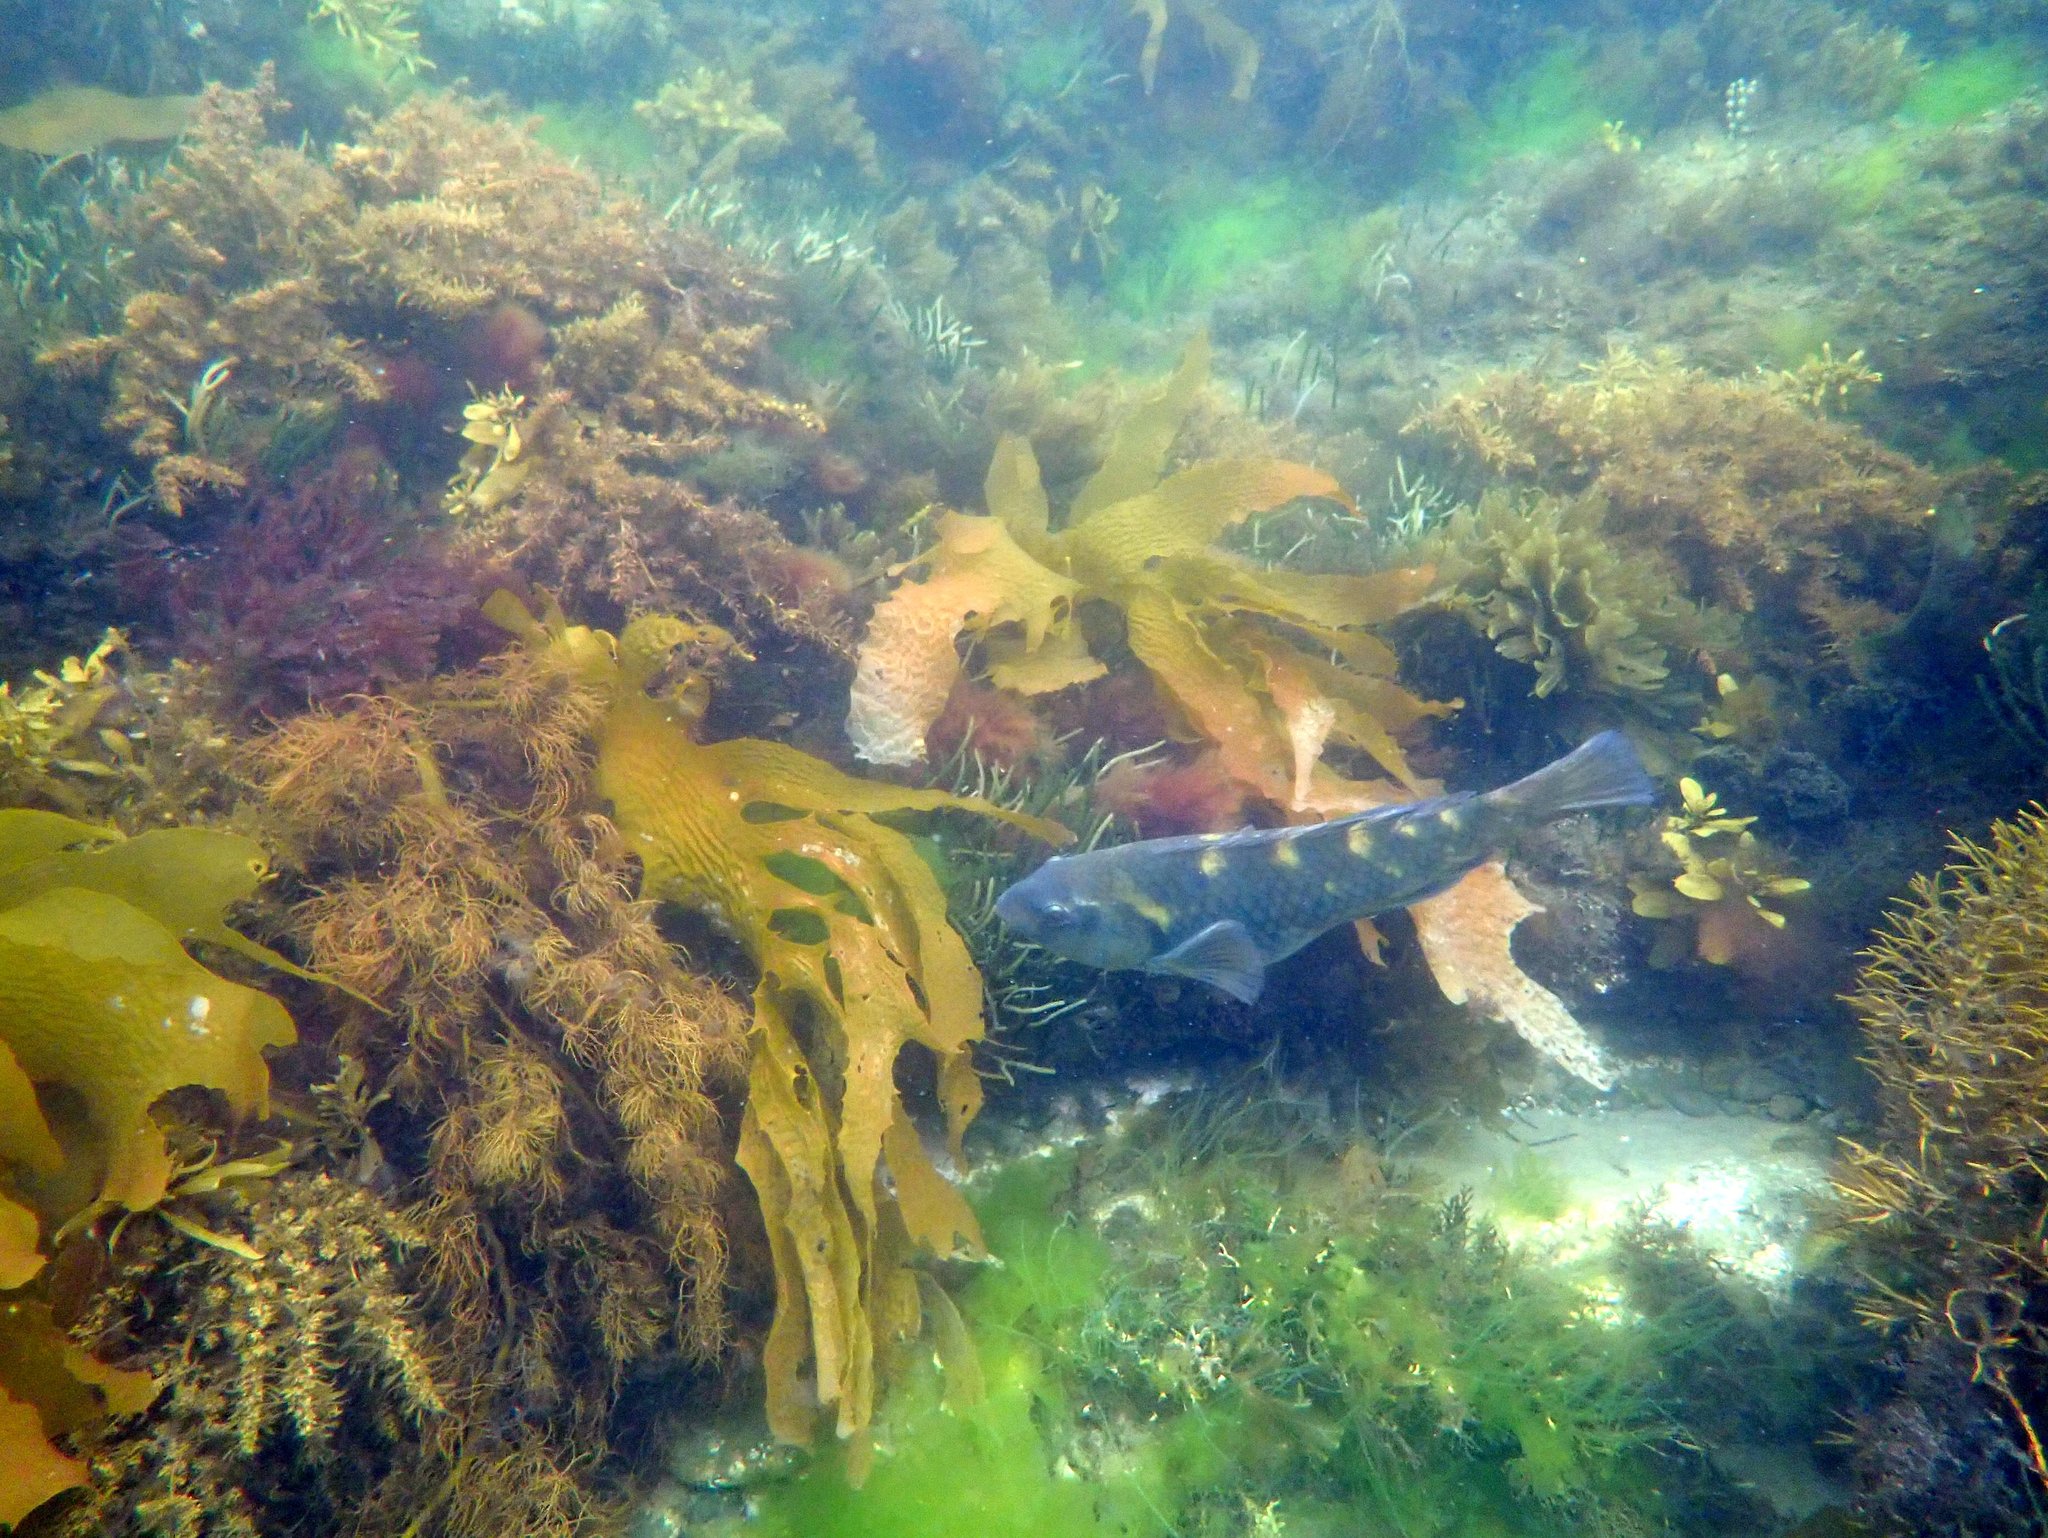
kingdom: Animalia
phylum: Chordata
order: Perciformes
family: Labridae
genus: Notolabrus
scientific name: Notolabrus fucicola
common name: Banded parrotfish
